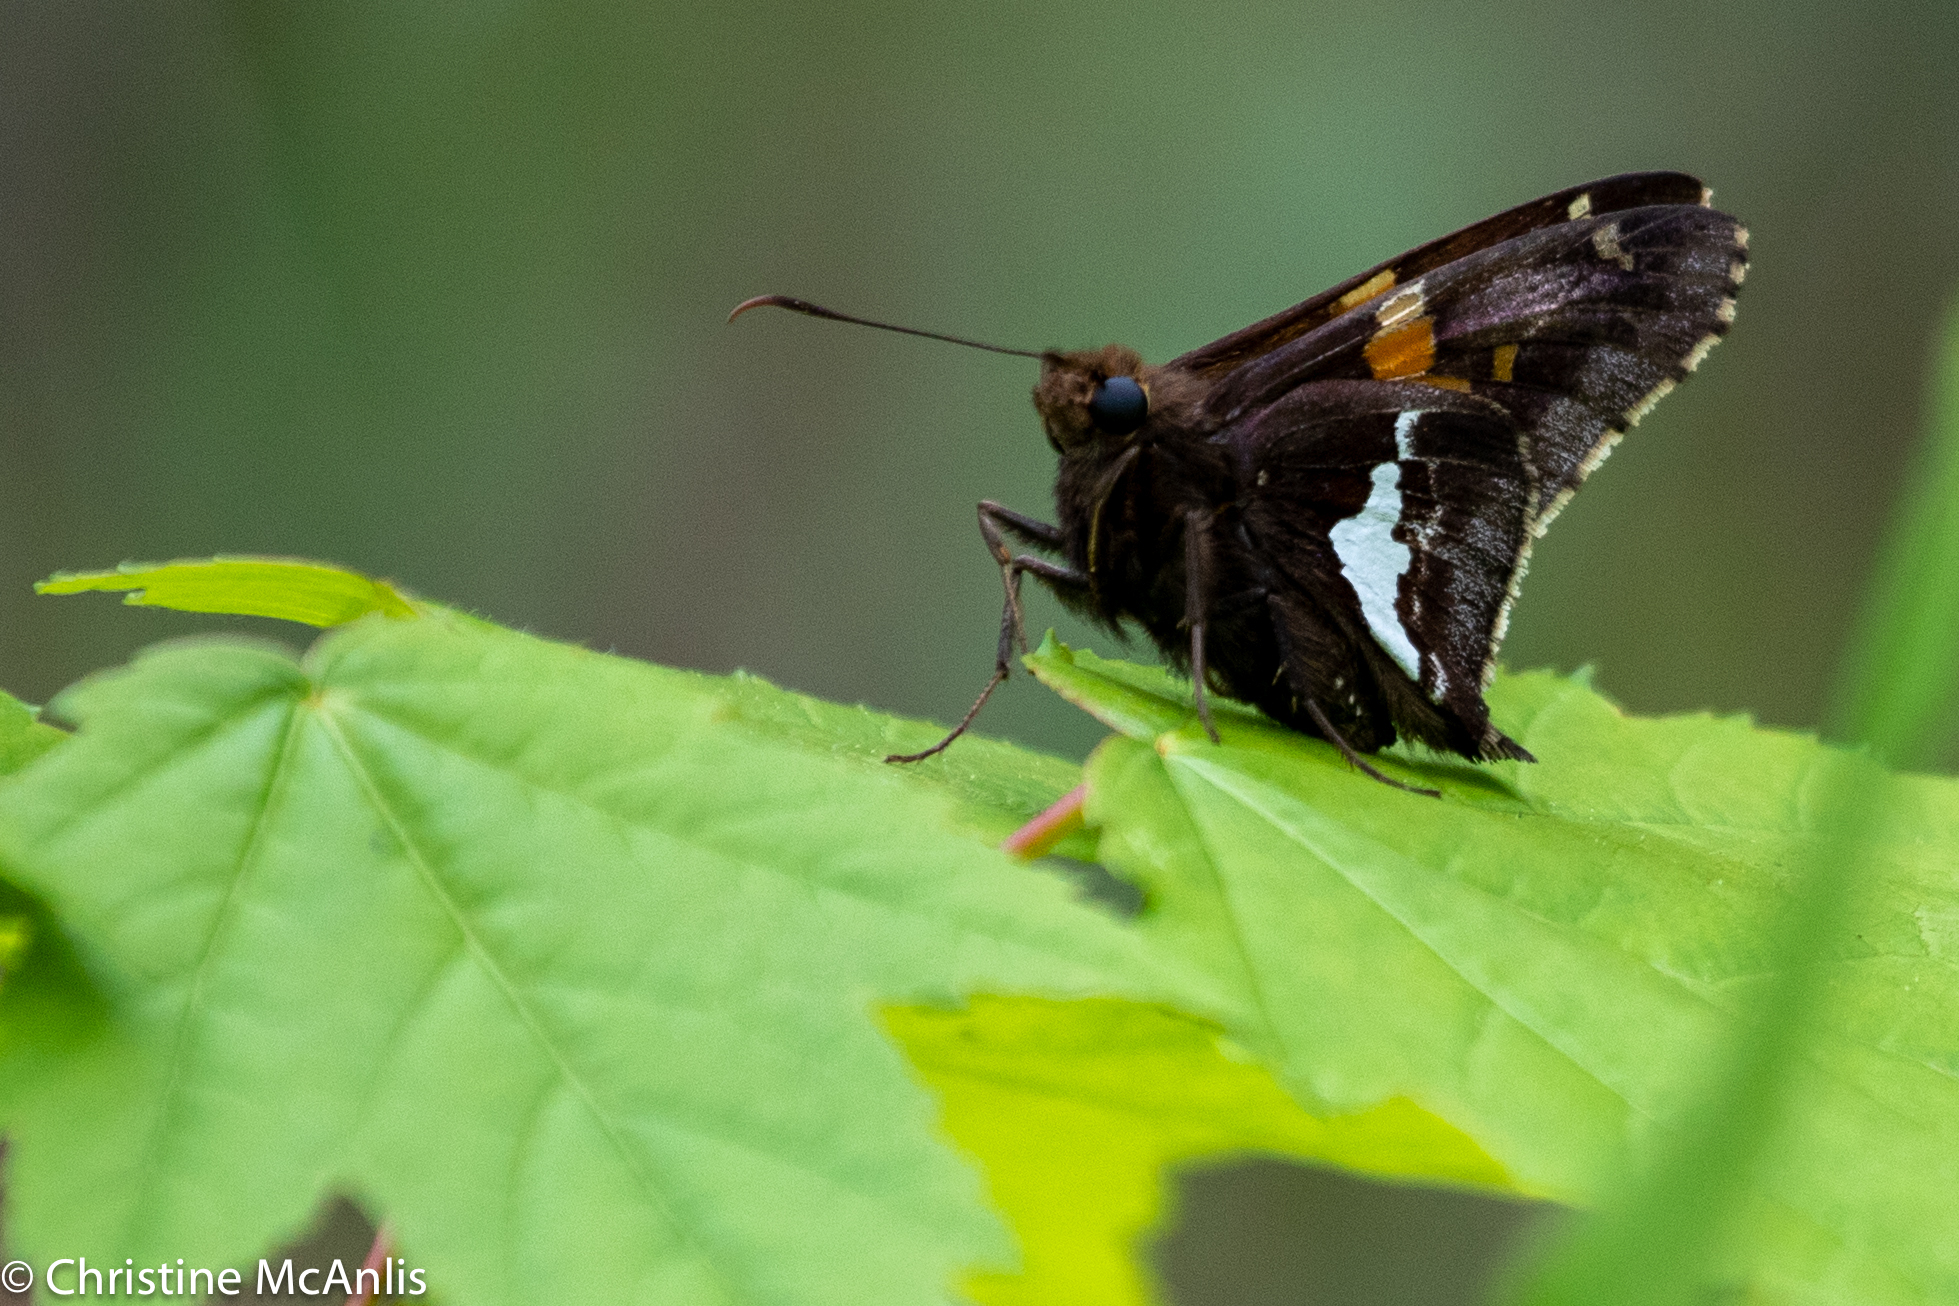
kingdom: Animalia
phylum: Arthropoda
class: Insecta
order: Lepidoptera
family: Hesperiidae
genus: Epargyreus
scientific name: Epargyreus clarus
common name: Silver-spotted skipper
